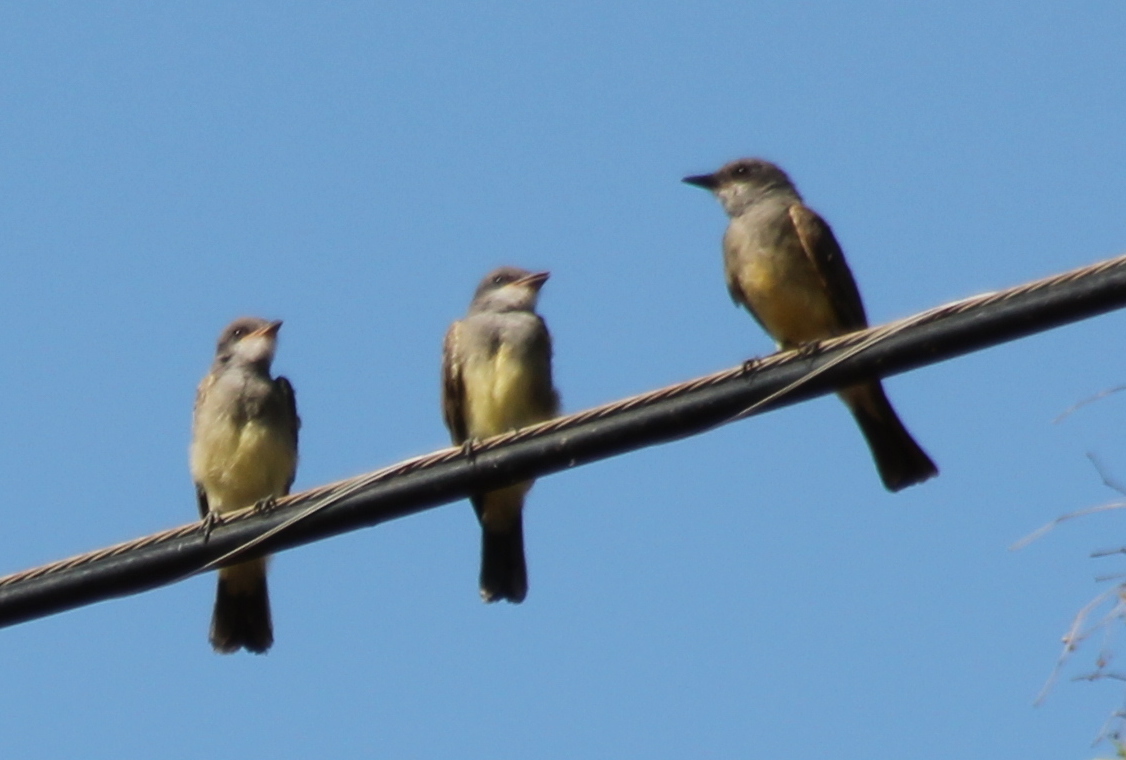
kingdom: Animalia
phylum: Chordata
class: Aves
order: Passeriformes
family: Tyrannidae
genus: Tyrannus
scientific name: Tyrannus vociferans
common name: Cassin's kingbird
